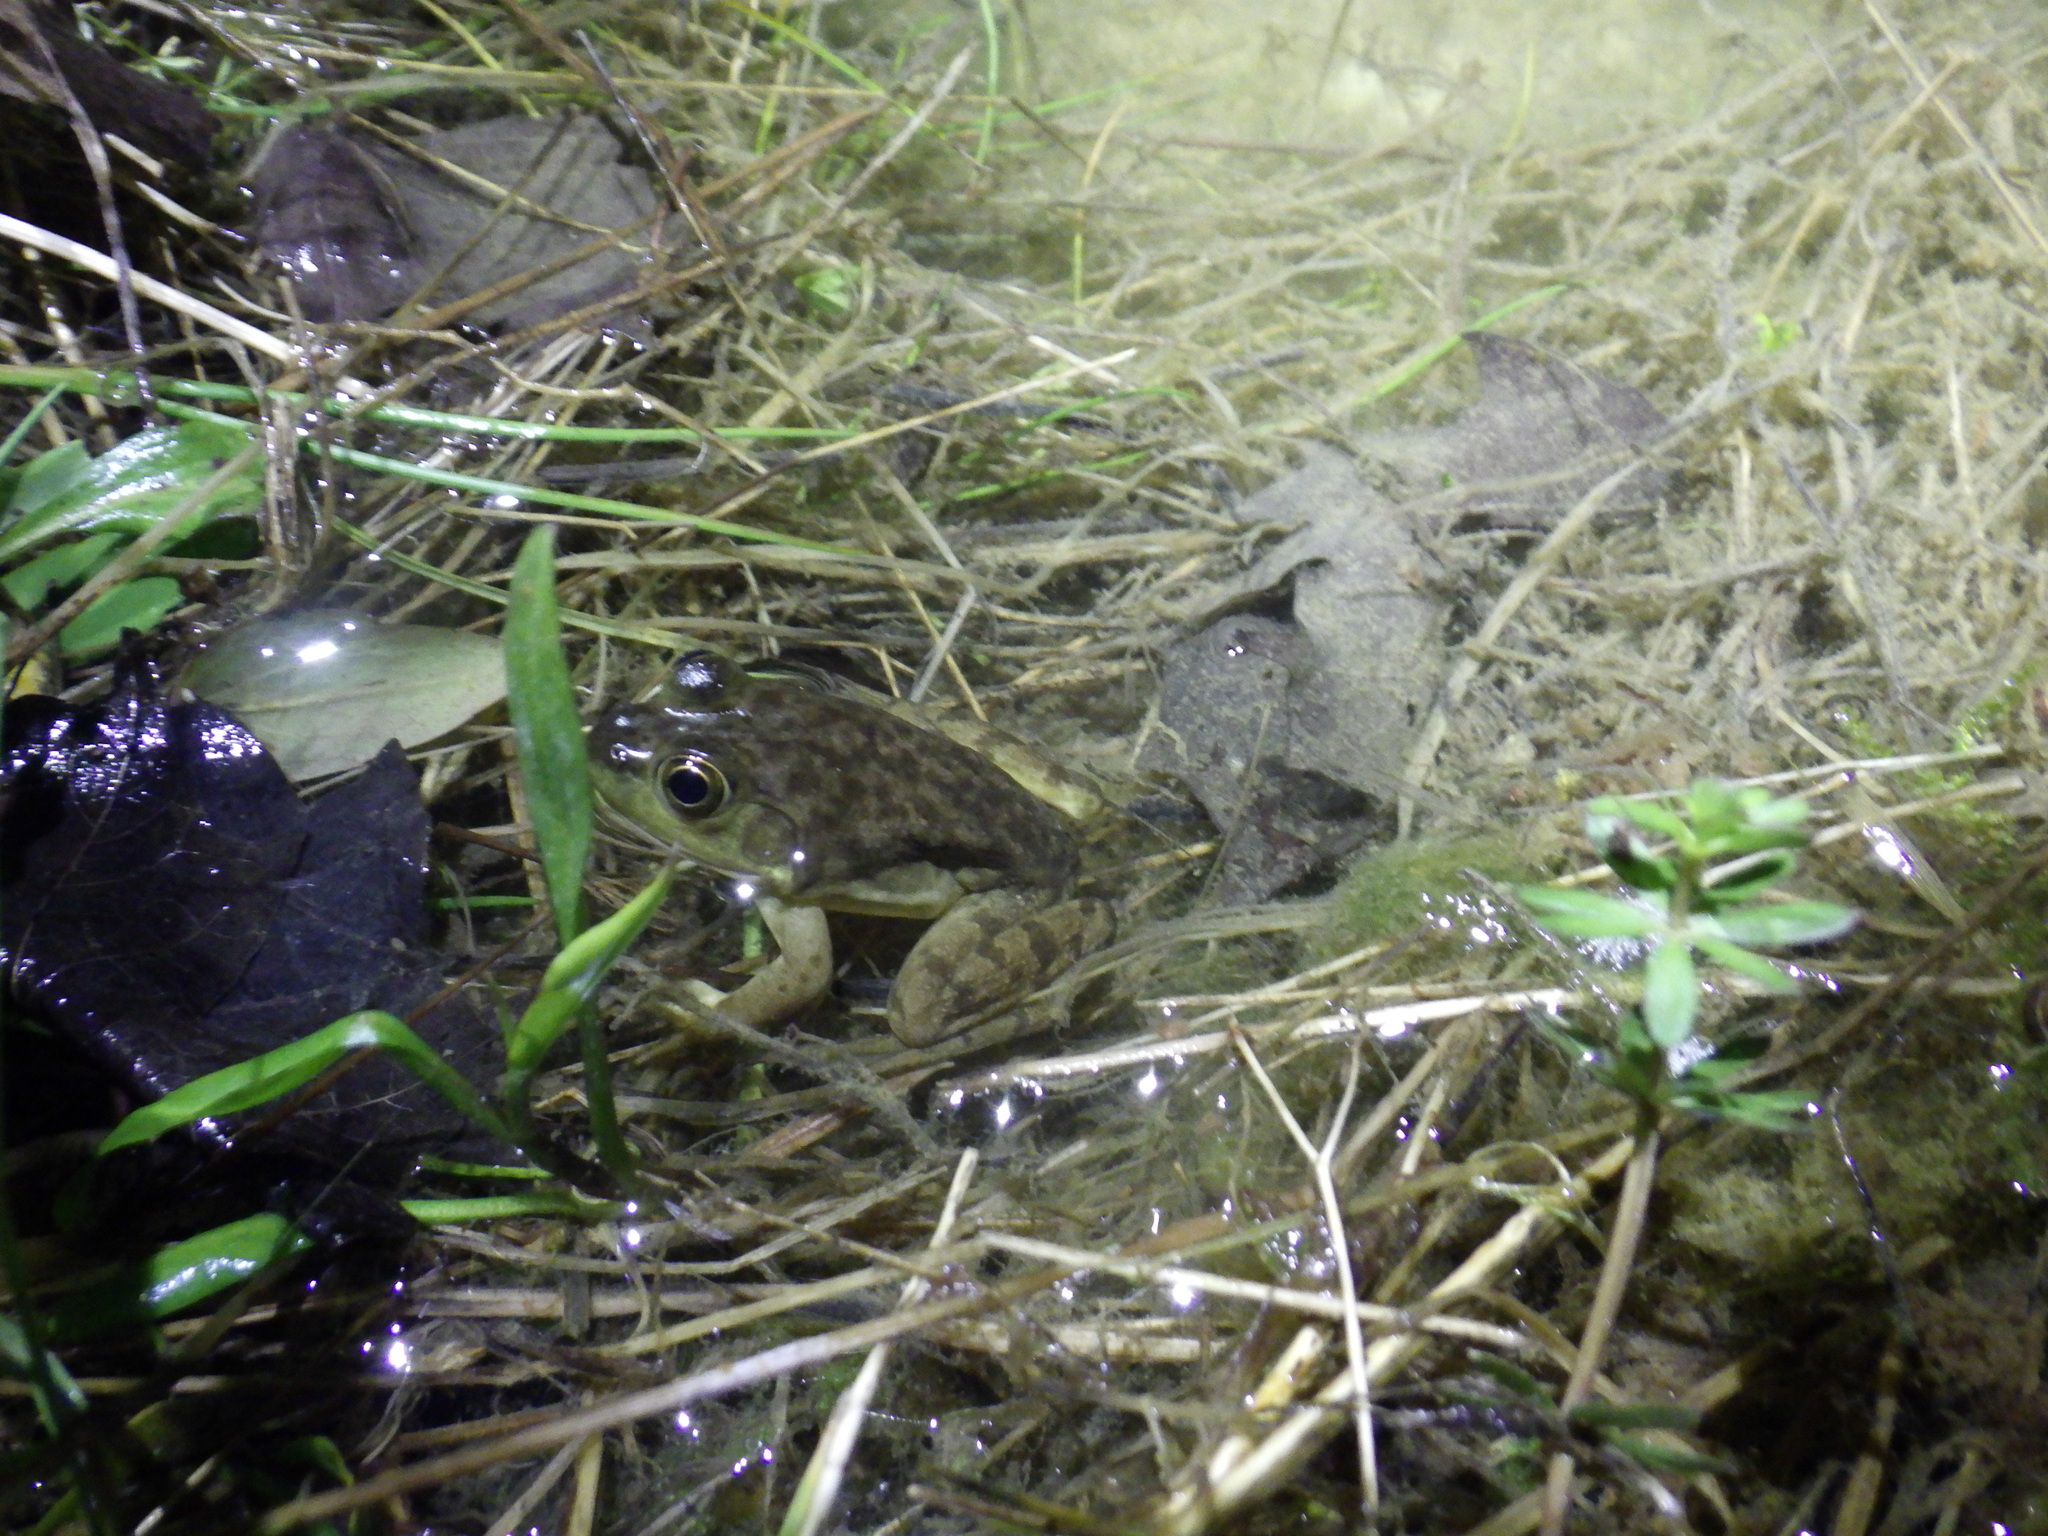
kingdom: Animalia
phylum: Chordata
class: Amphibia
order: Anura
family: Ranidae
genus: Lithobates
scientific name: Lithobates catesbeianus
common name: American bullfrog
